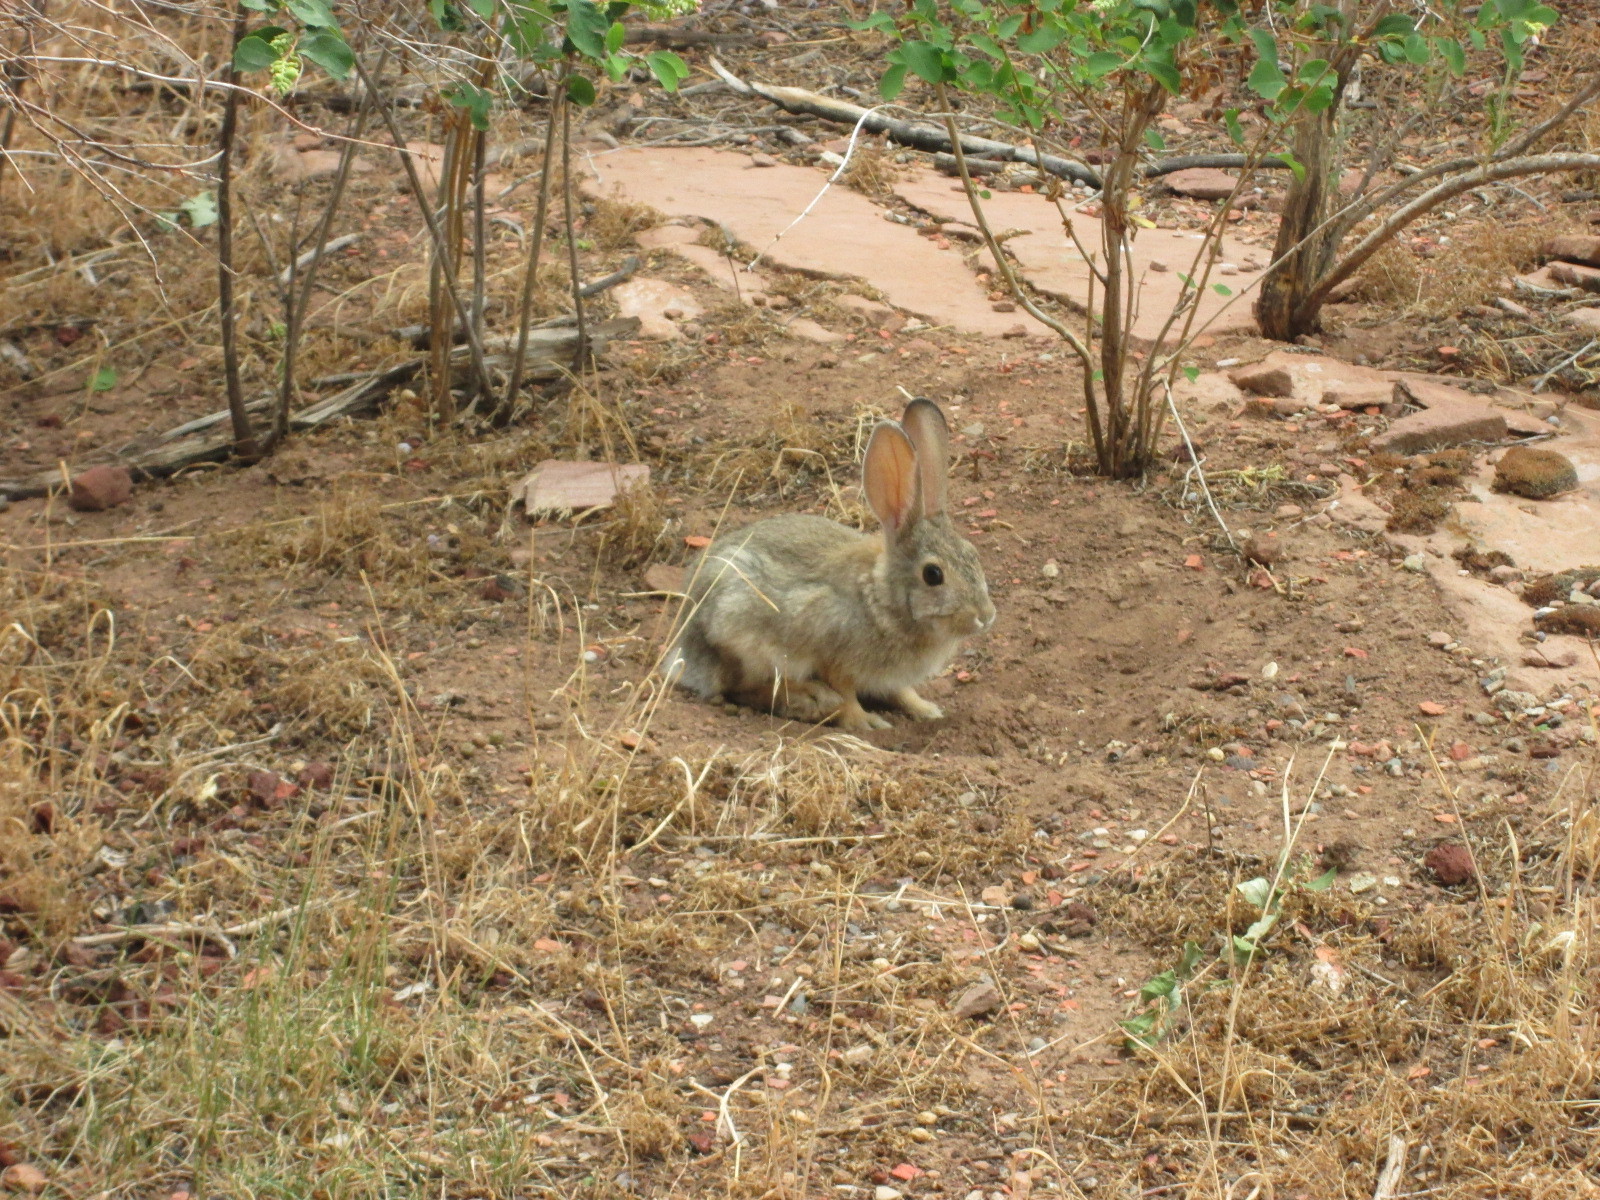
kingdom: Animalia
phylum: Chordata
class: Mammalia
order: Lagomorpha
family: Leporidae
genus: Sylvilagus
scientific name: Sylvilagus audubonii
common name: Desert cottontail
